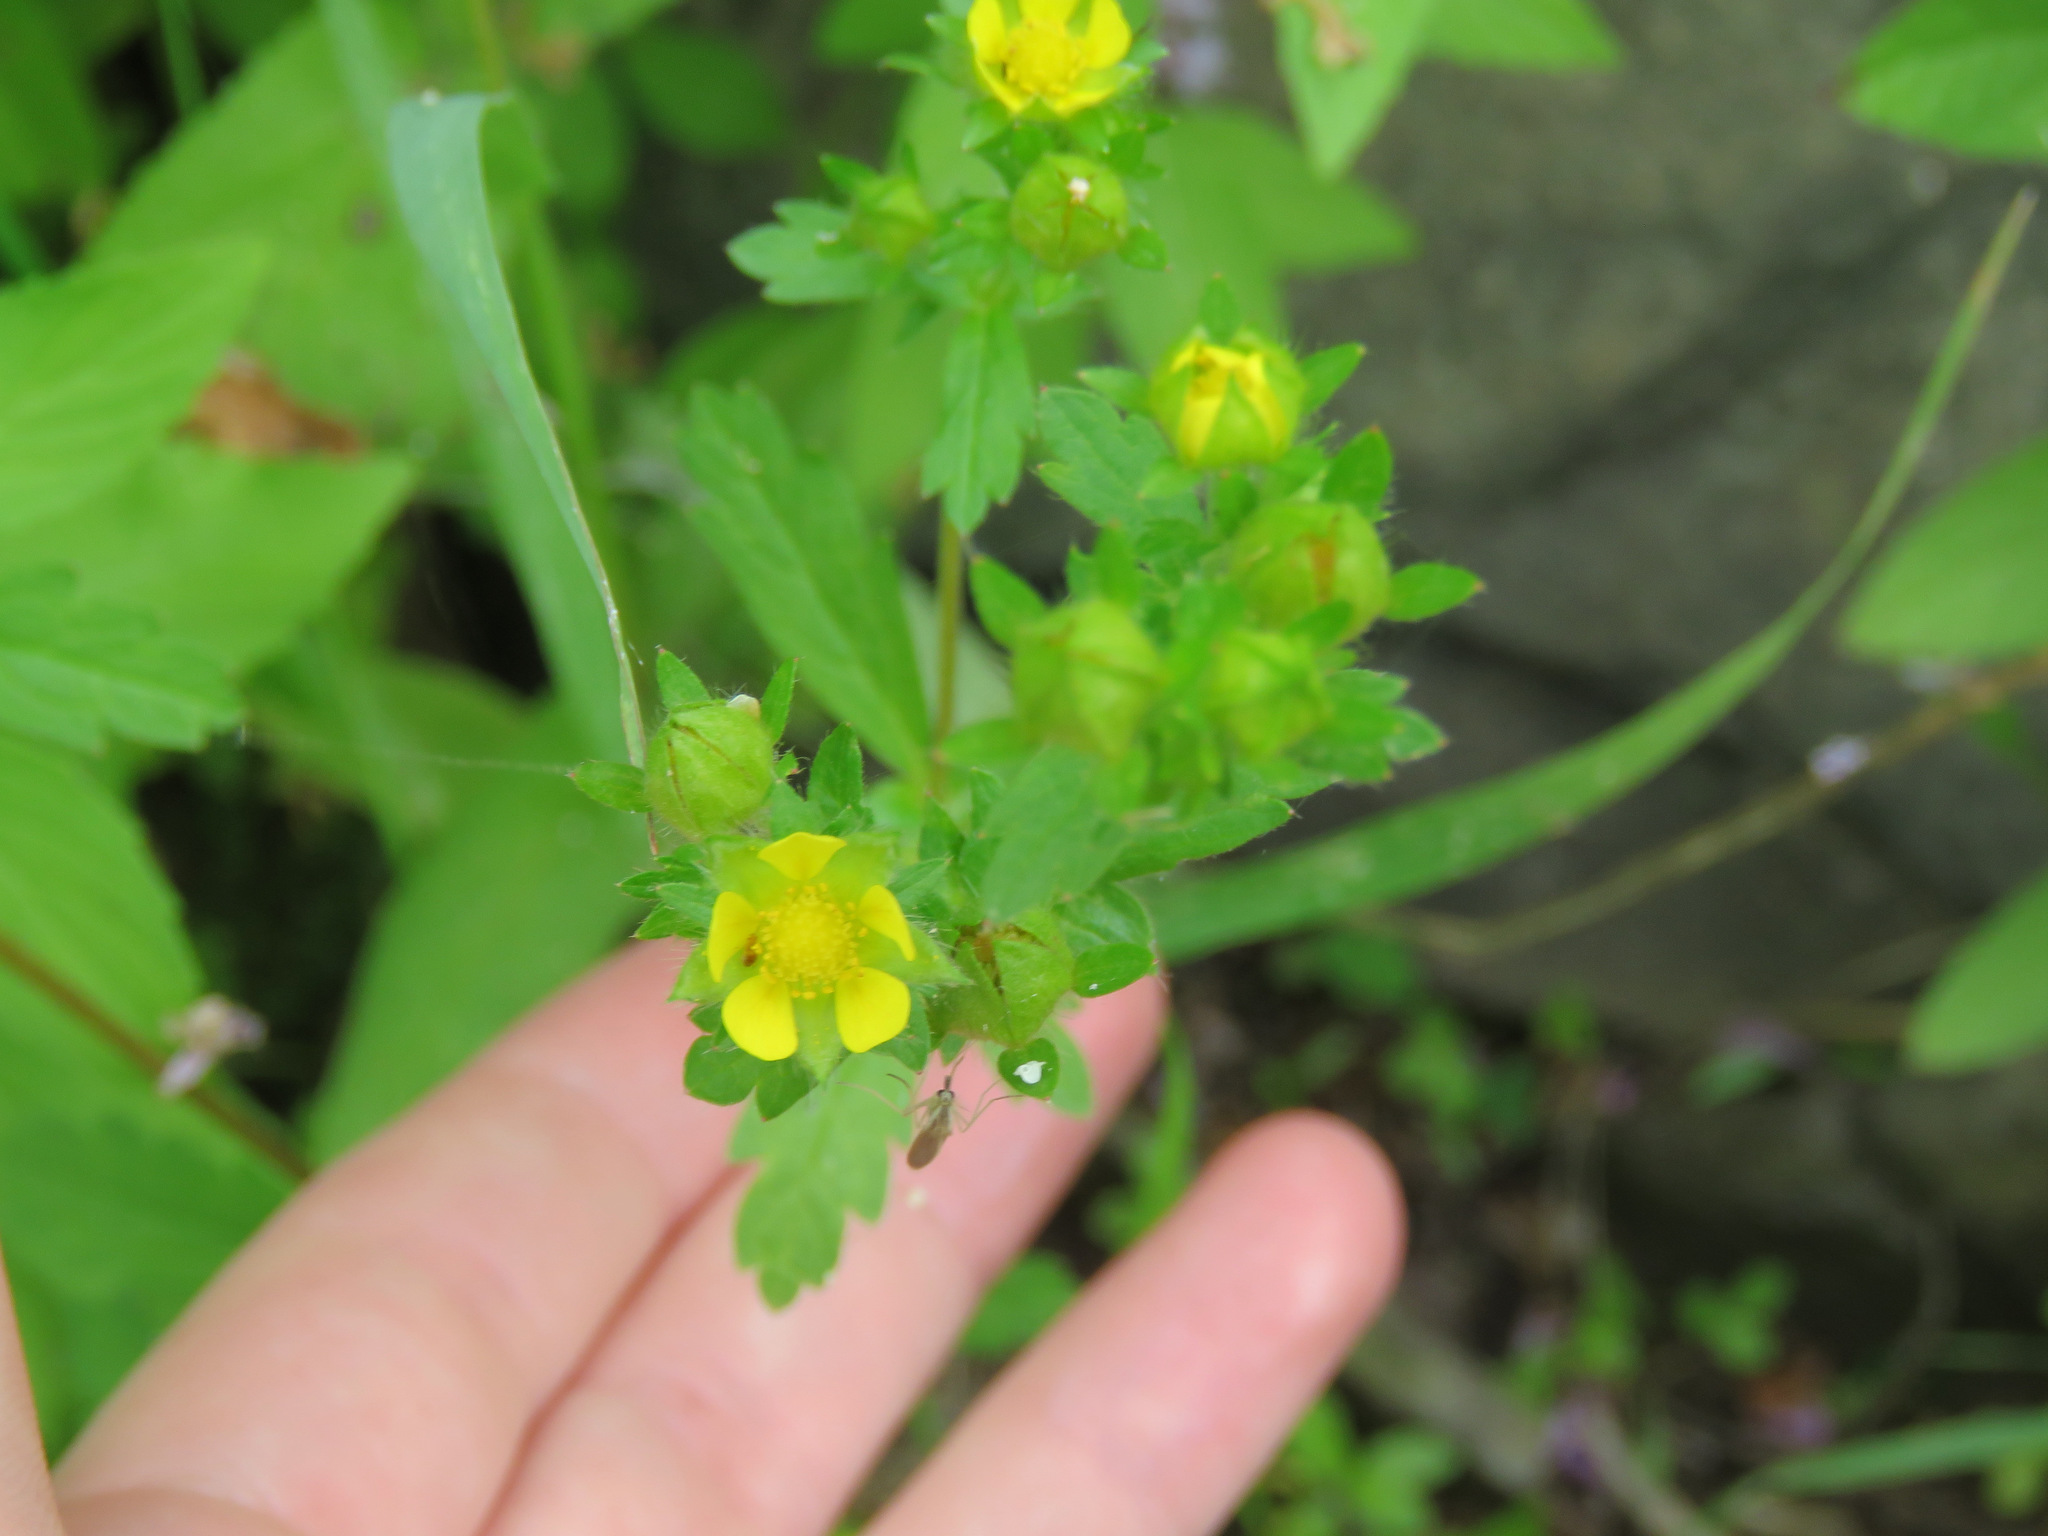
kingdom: Plantae
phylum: Tracheophyta
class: Magnoliopsida
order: Rosales
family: Rosaceae
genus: Potentilla
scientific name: Potentilla norvegica
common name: Ternate-leaved cinquefoil
